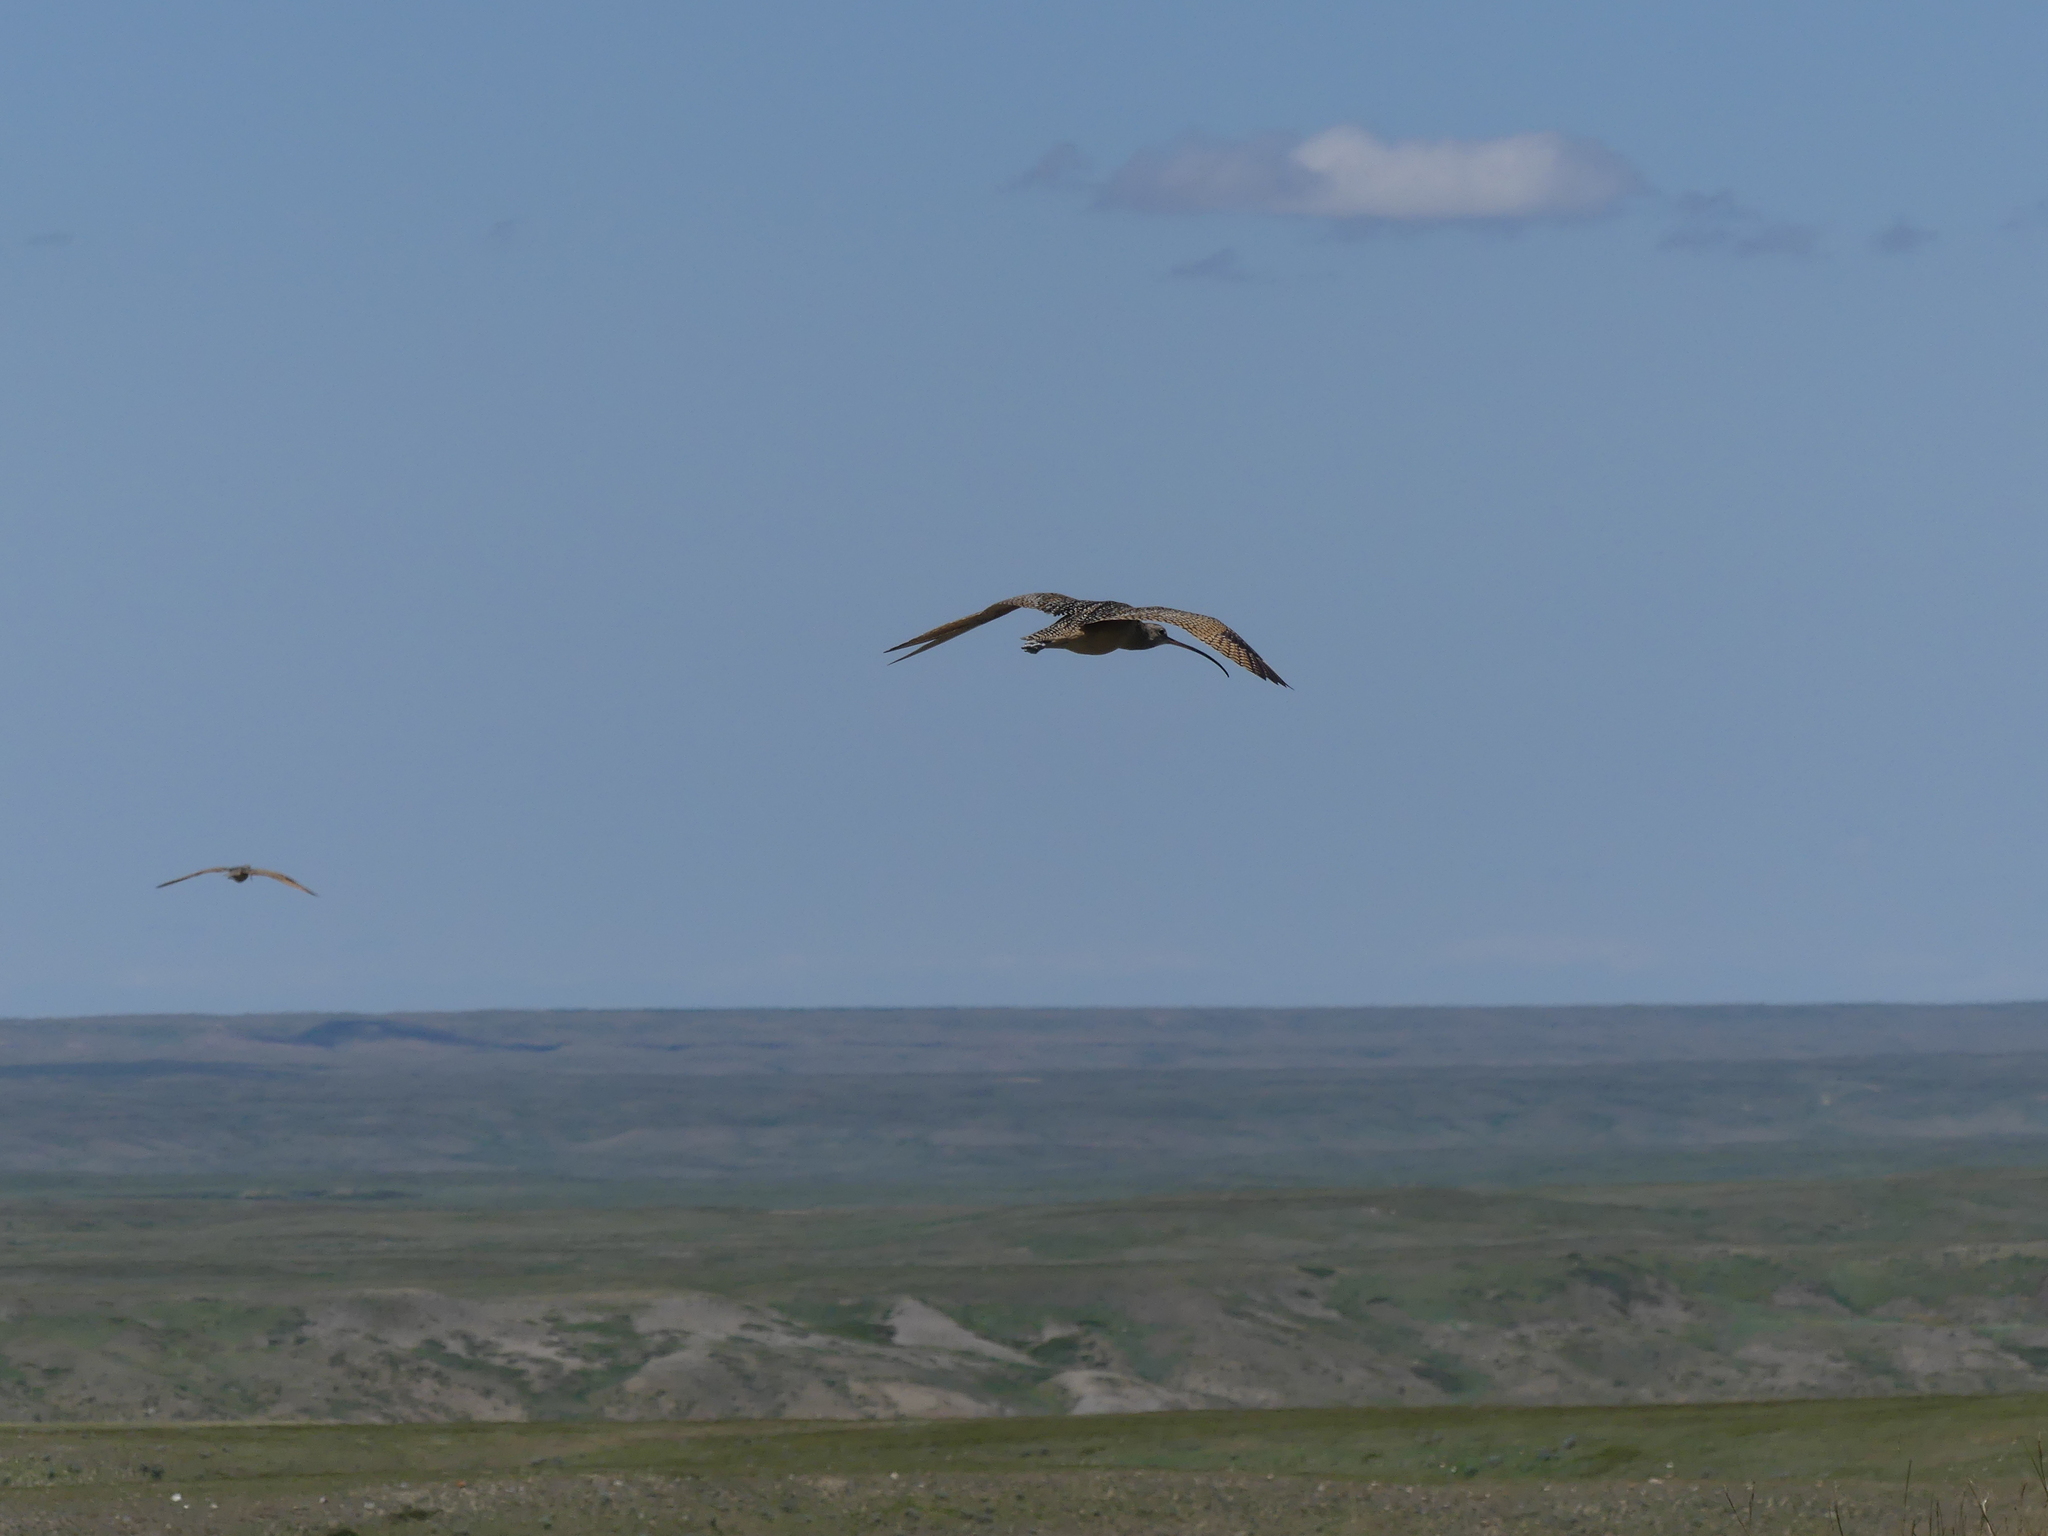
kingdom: Animalia
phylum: Chordata
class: Aves
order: Charadriiformes
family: Scolopacidae
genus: Numenius
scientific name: Numenius americanus
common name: Long-billed curlew
